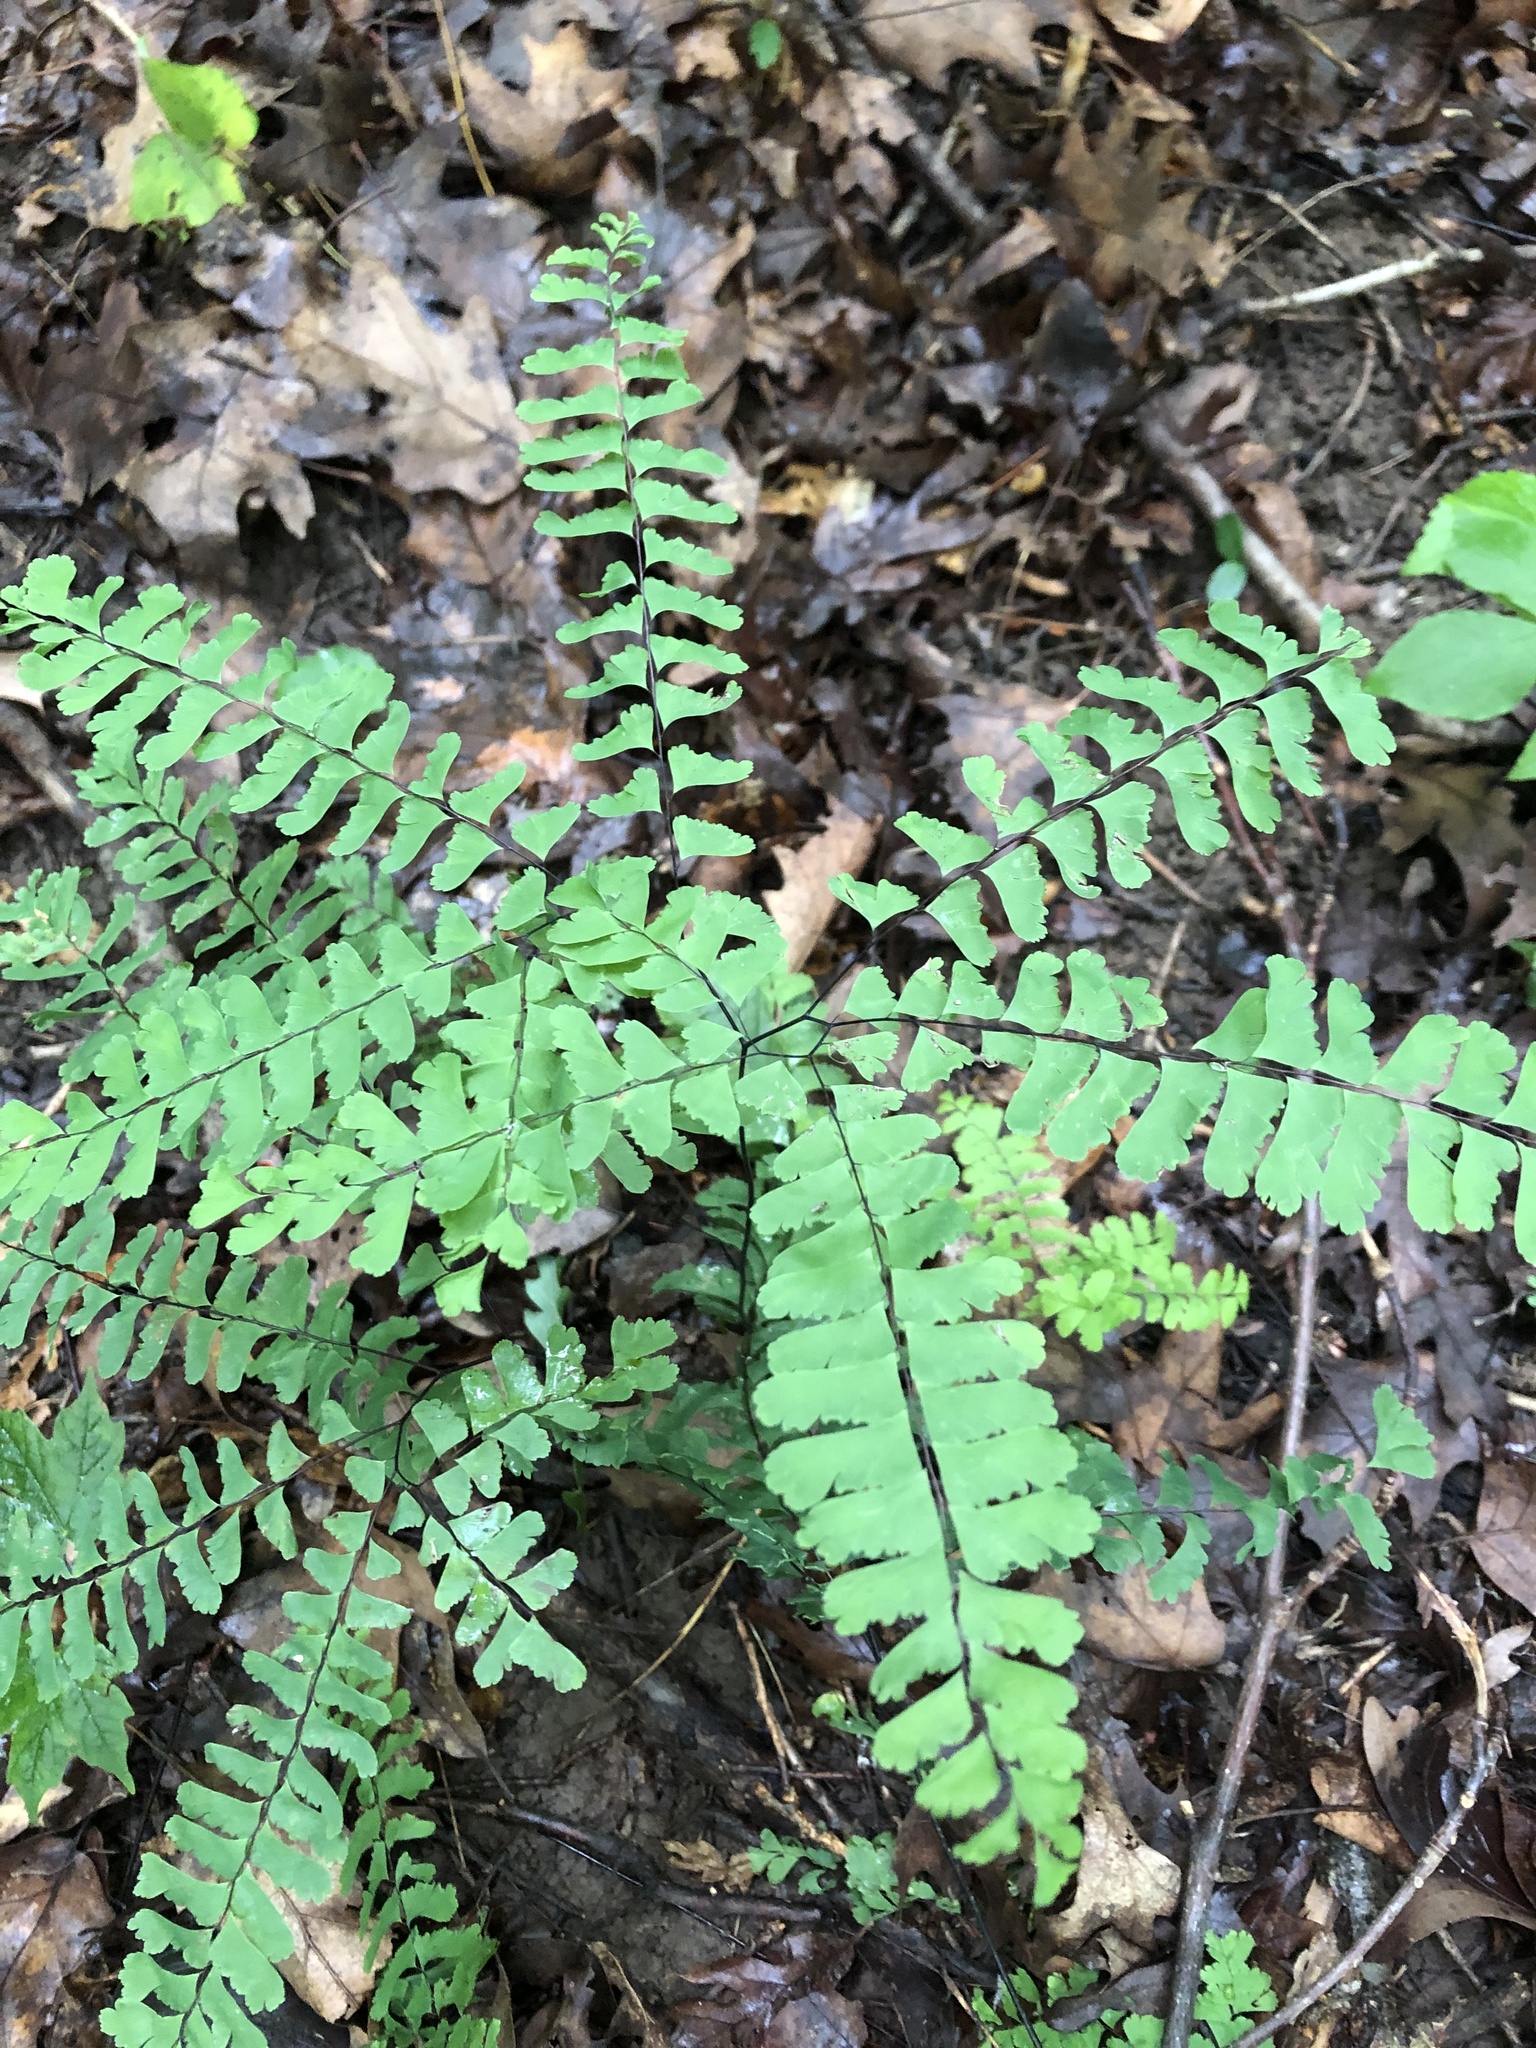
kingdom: Plantae
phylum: Tracheophyta
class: Polypodiopsida
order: Polypodiales
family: Pteridaceae
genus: Adiantum
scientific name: Adiantum pedatum
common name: Five-finger fern
